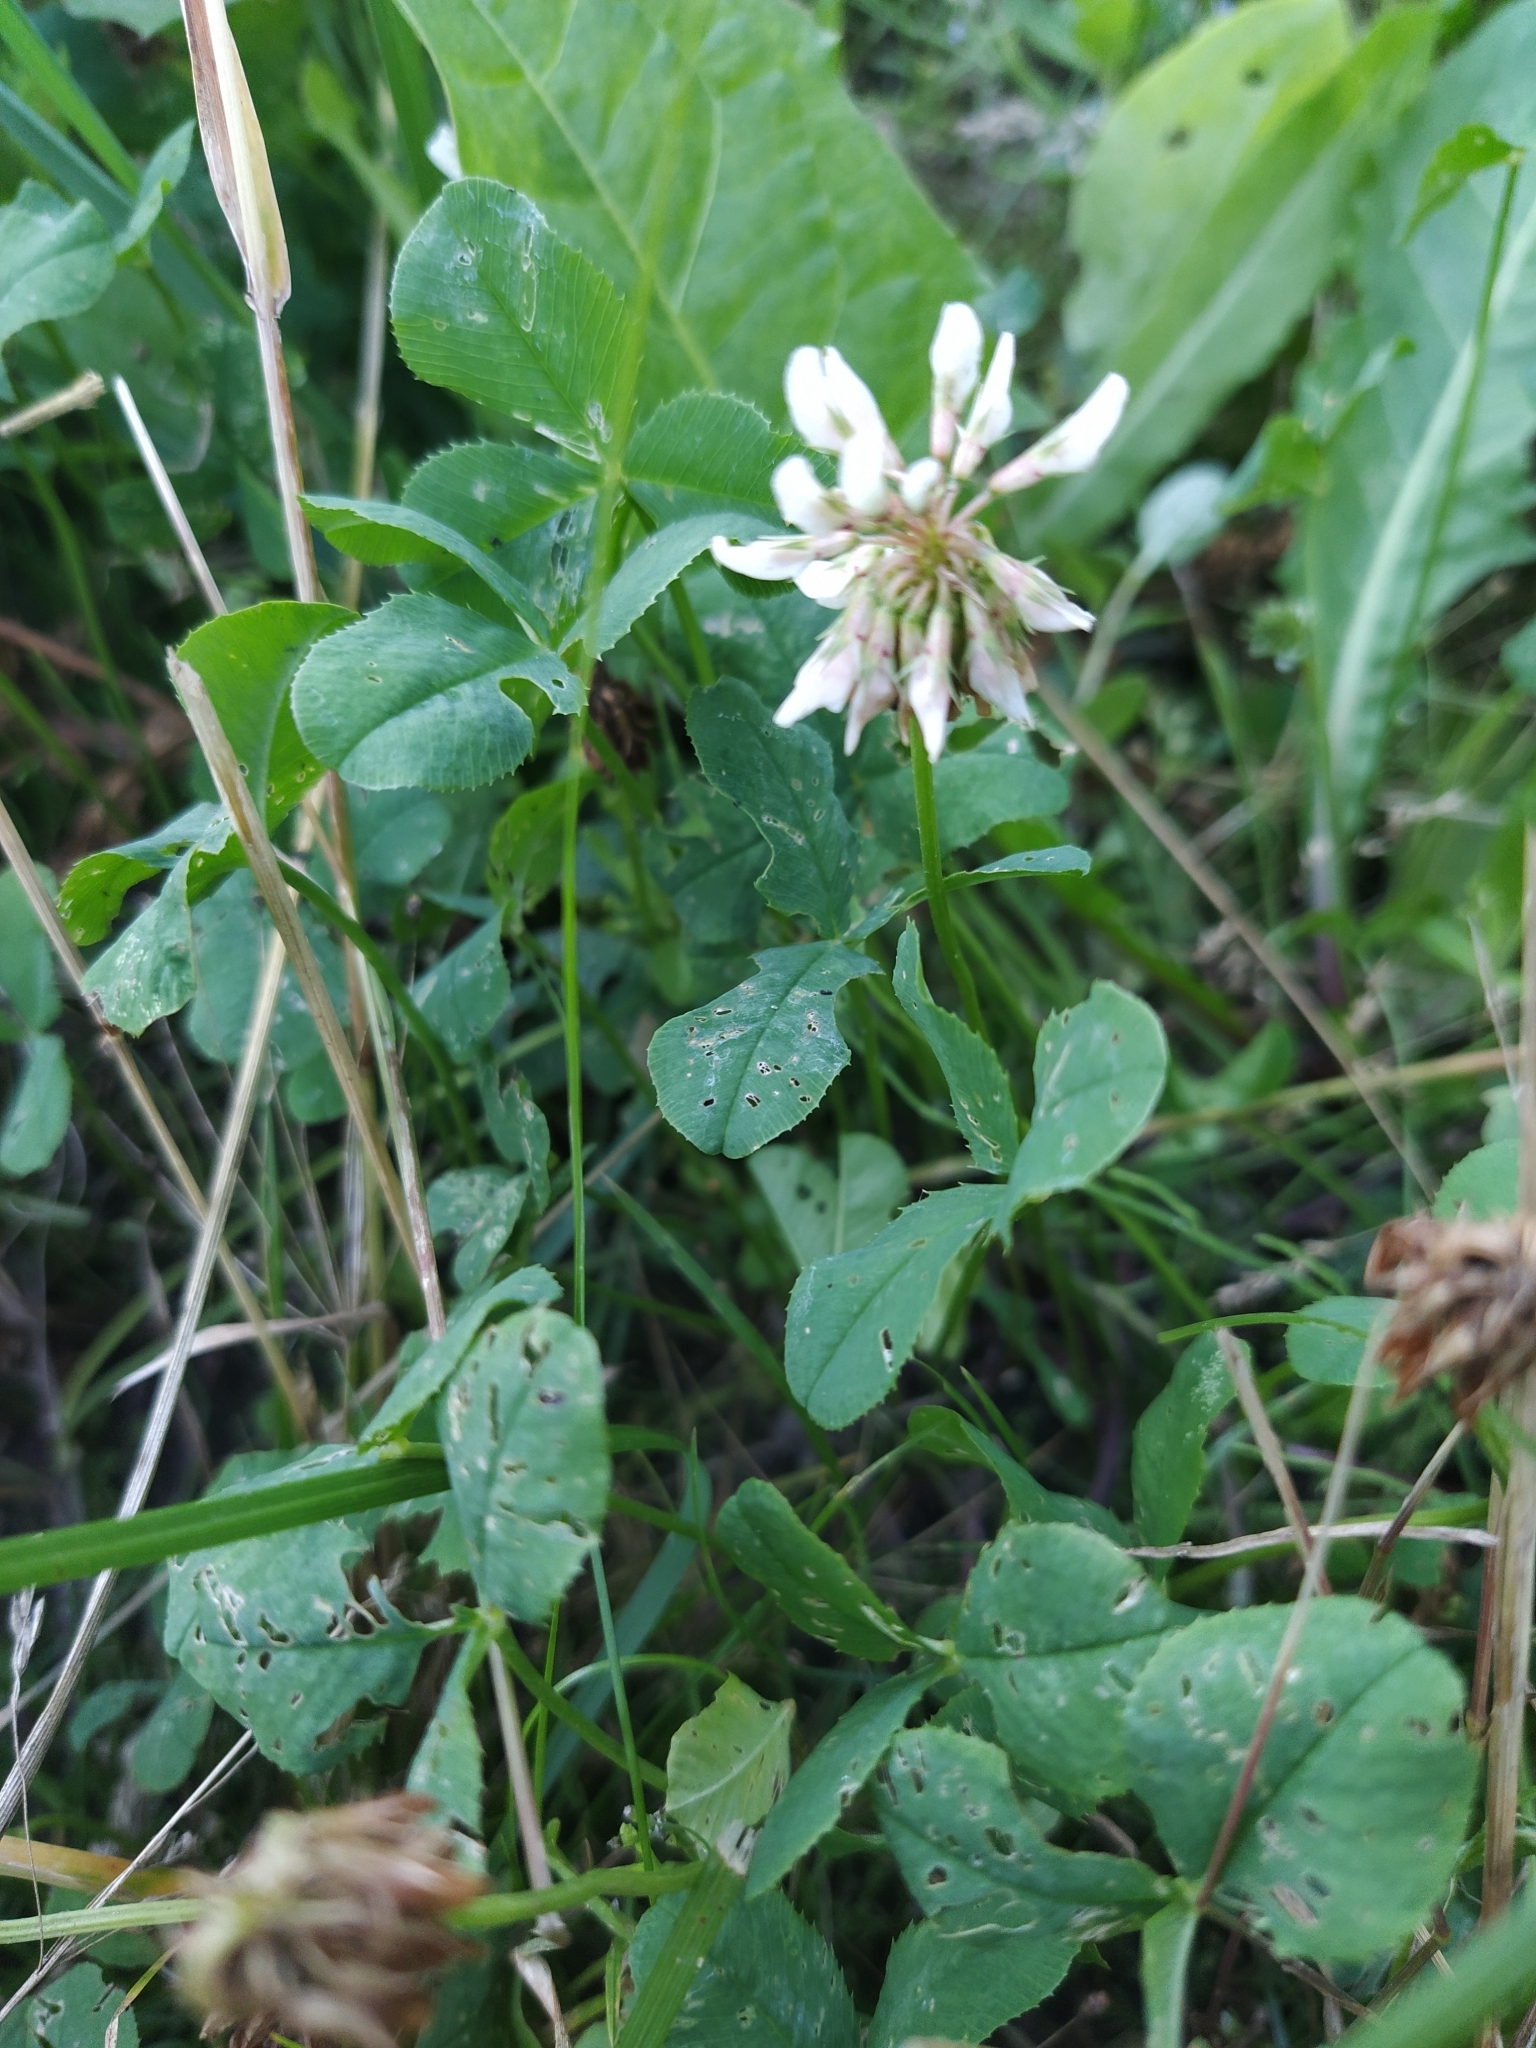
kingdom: Plantae
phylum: Tracheophyta
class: Magnoliopsida
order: Fabales
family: Fabaceae
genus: Trifolium
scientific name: Trifolium repens
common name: White clover
